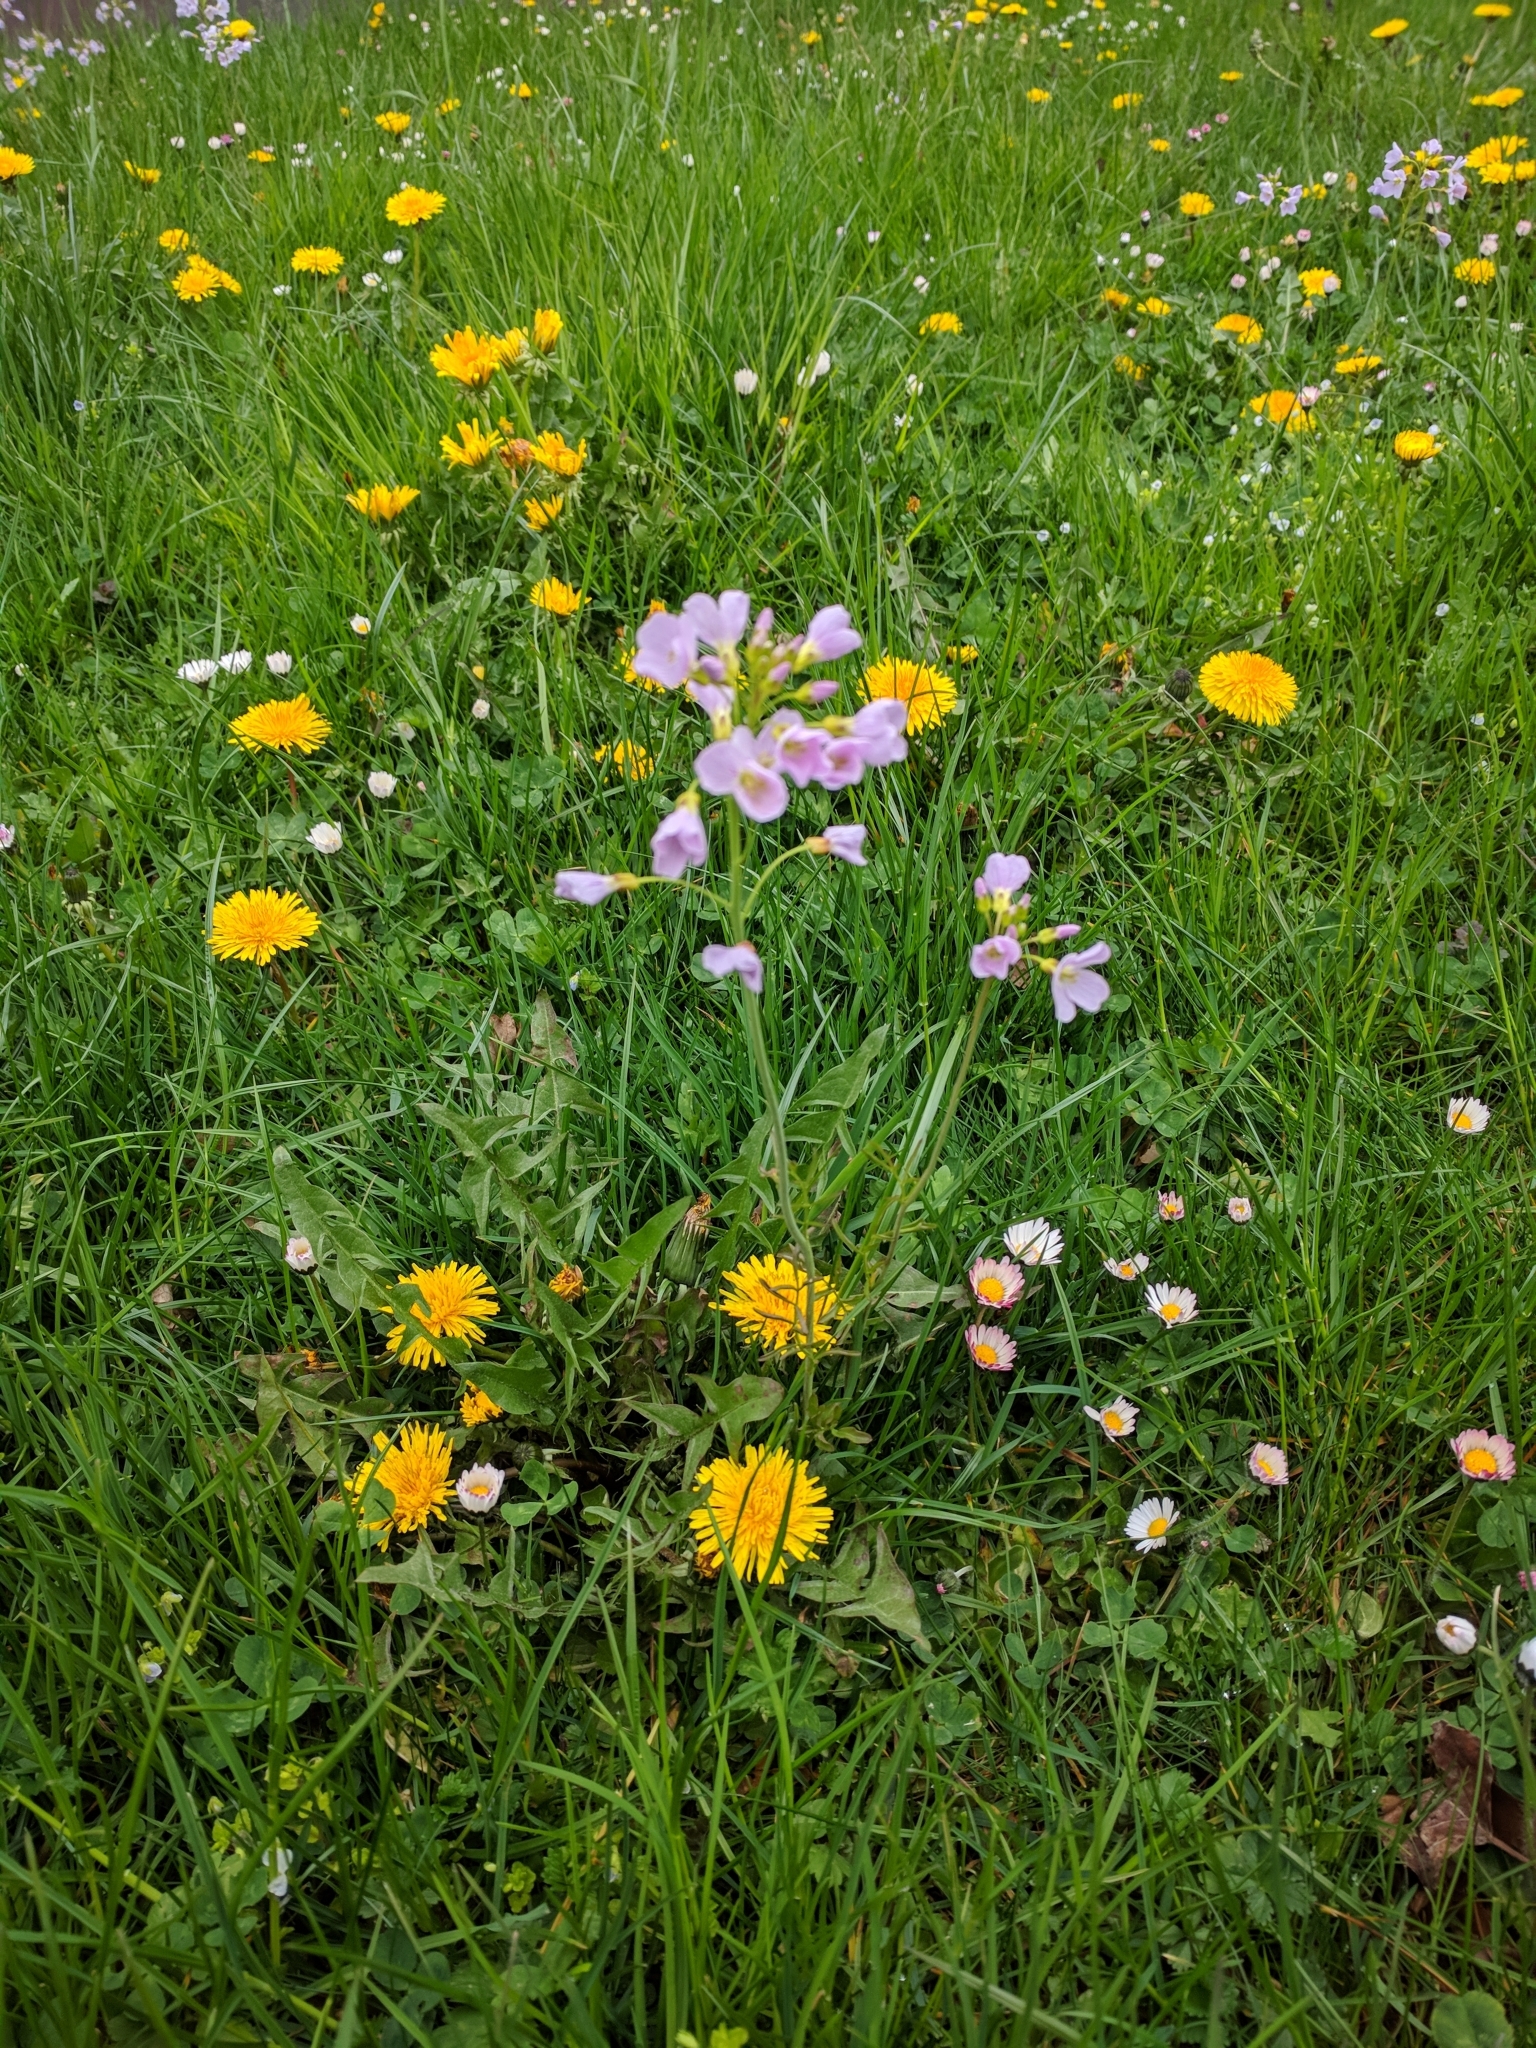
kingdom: Plantae
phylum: Tracheophyta
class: Magnoliopsida
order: Brassicales
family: Brassicaceae
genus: Cardamine
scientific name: Cardamine pratensis
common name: Cuckoo flower
